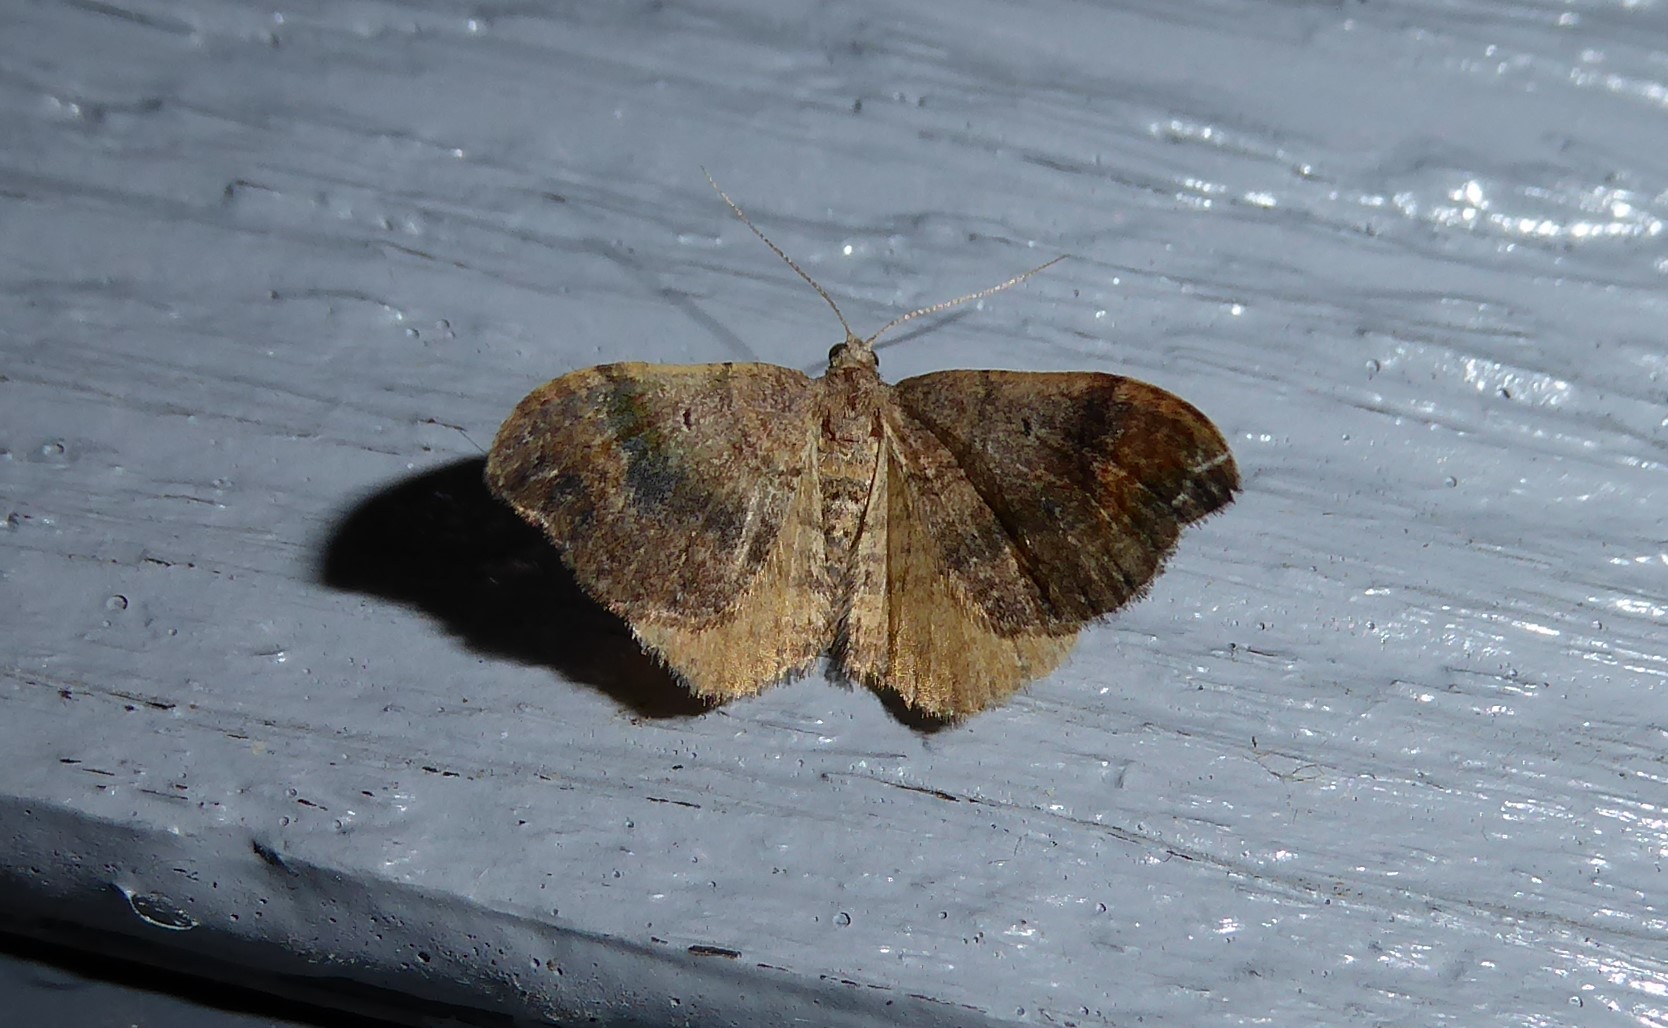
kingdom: Animalia
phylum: Arthropoda
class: Insecta
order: Lepidoptera
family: Geometridae
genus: Homodotis
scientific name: Homodotis megaspilata
